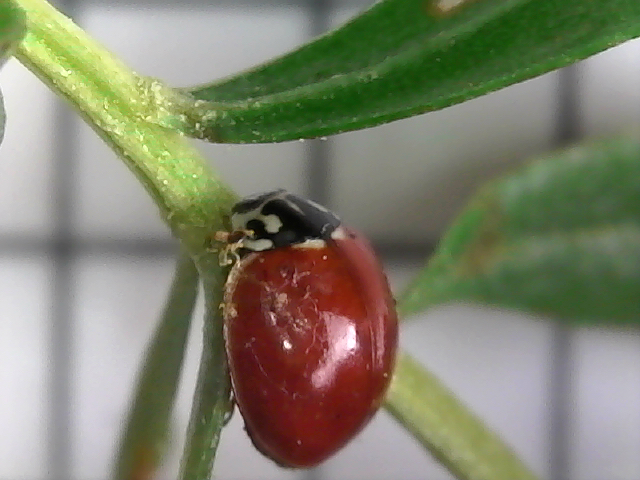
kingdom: Animalia
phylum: Arthropoda
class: Insecta
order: Coleoptera
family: Coccinellidae
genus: Cycloneda
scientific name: Cycloneda polita
